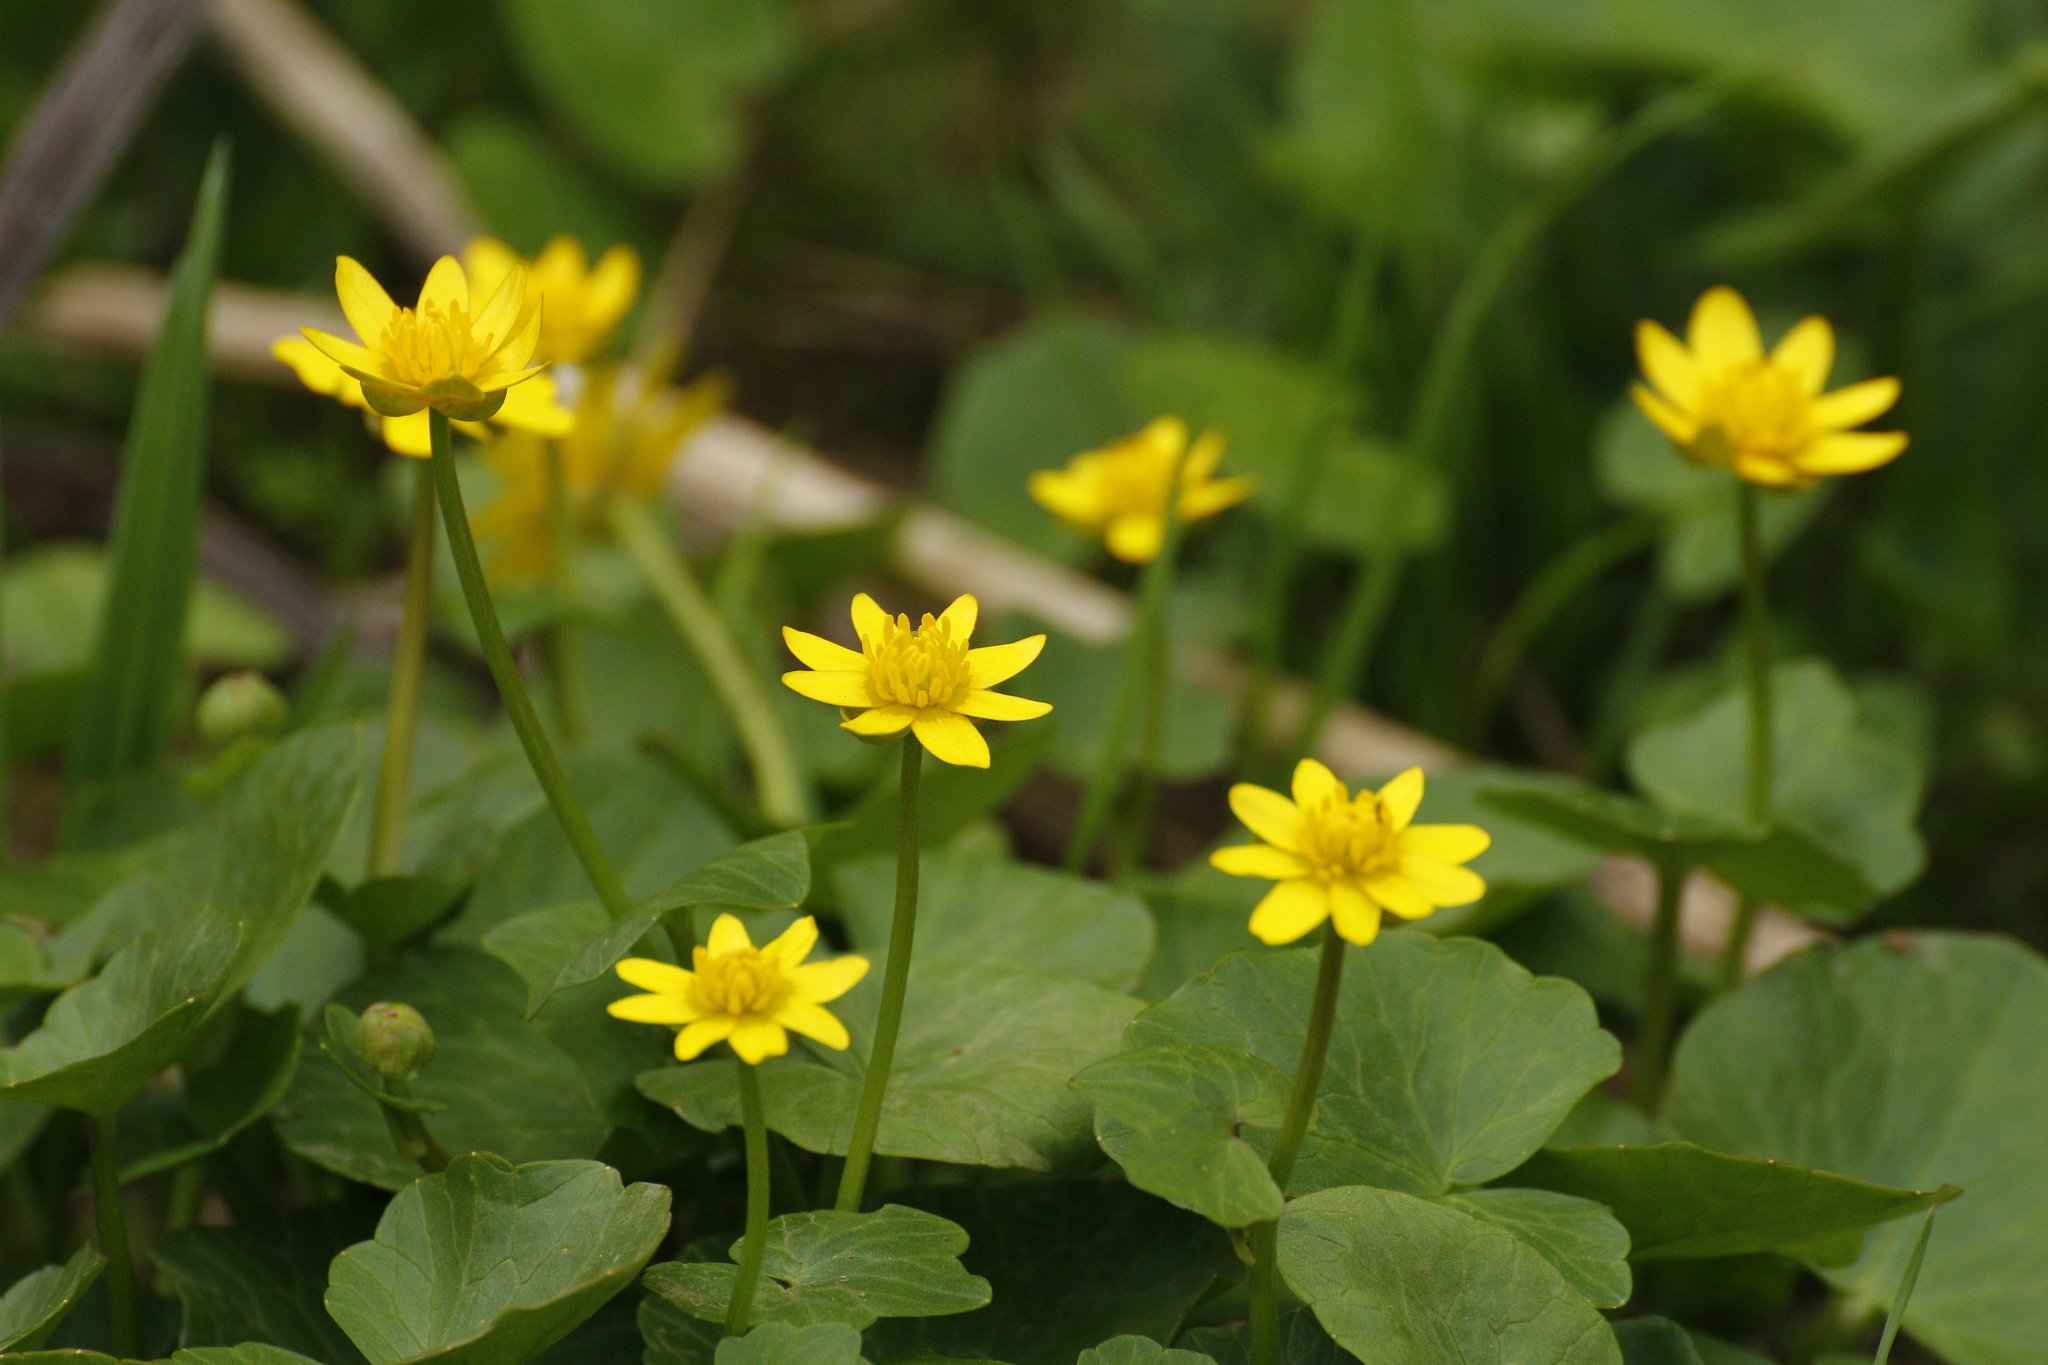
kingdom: Plantae
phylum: Tracheophyta
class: Magnoliopsida
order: Ranunculales
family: Ranunculaceae
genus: Ficaria
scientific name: Ficaria verna
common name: Lesser celandine
